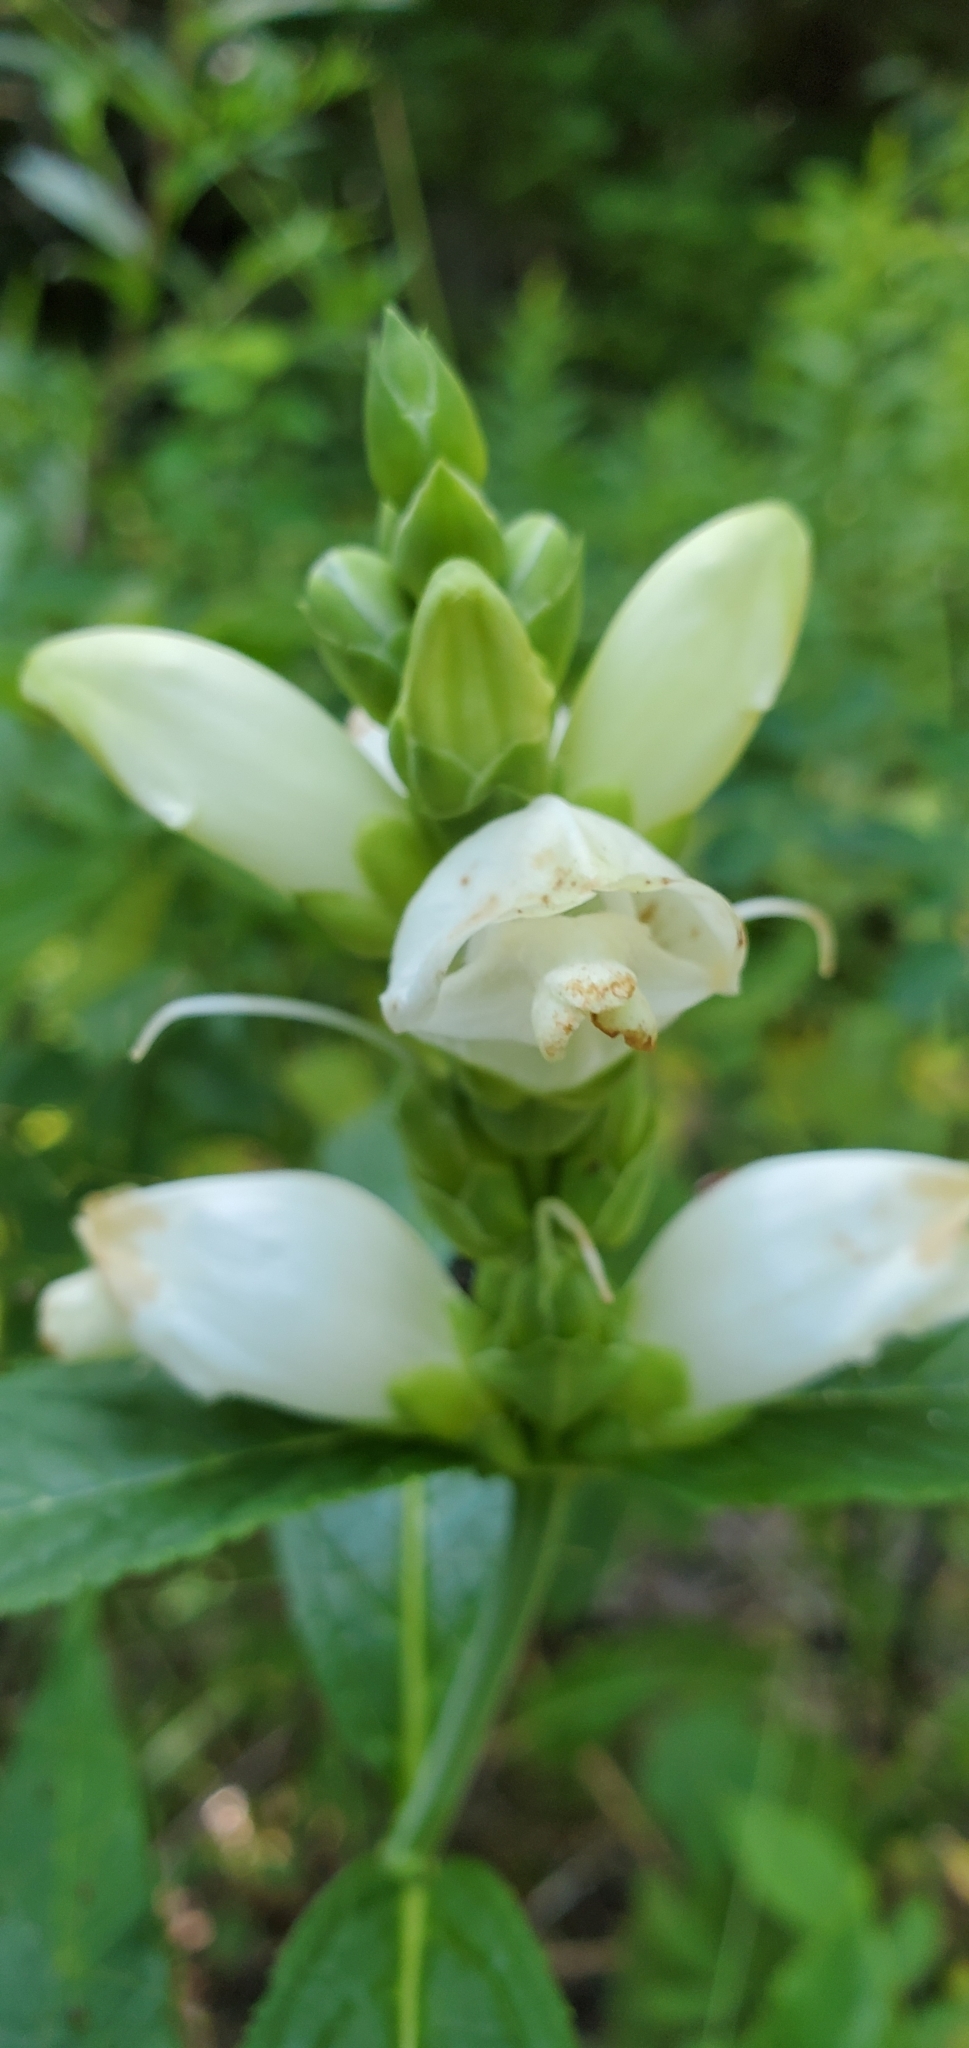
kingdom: Plantae
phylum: Tracheophyta
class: Magnoliopsida
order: Lamiales
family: Plantaginaceae
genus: Chelone
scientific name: Chelone glabra
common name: Snakehead
